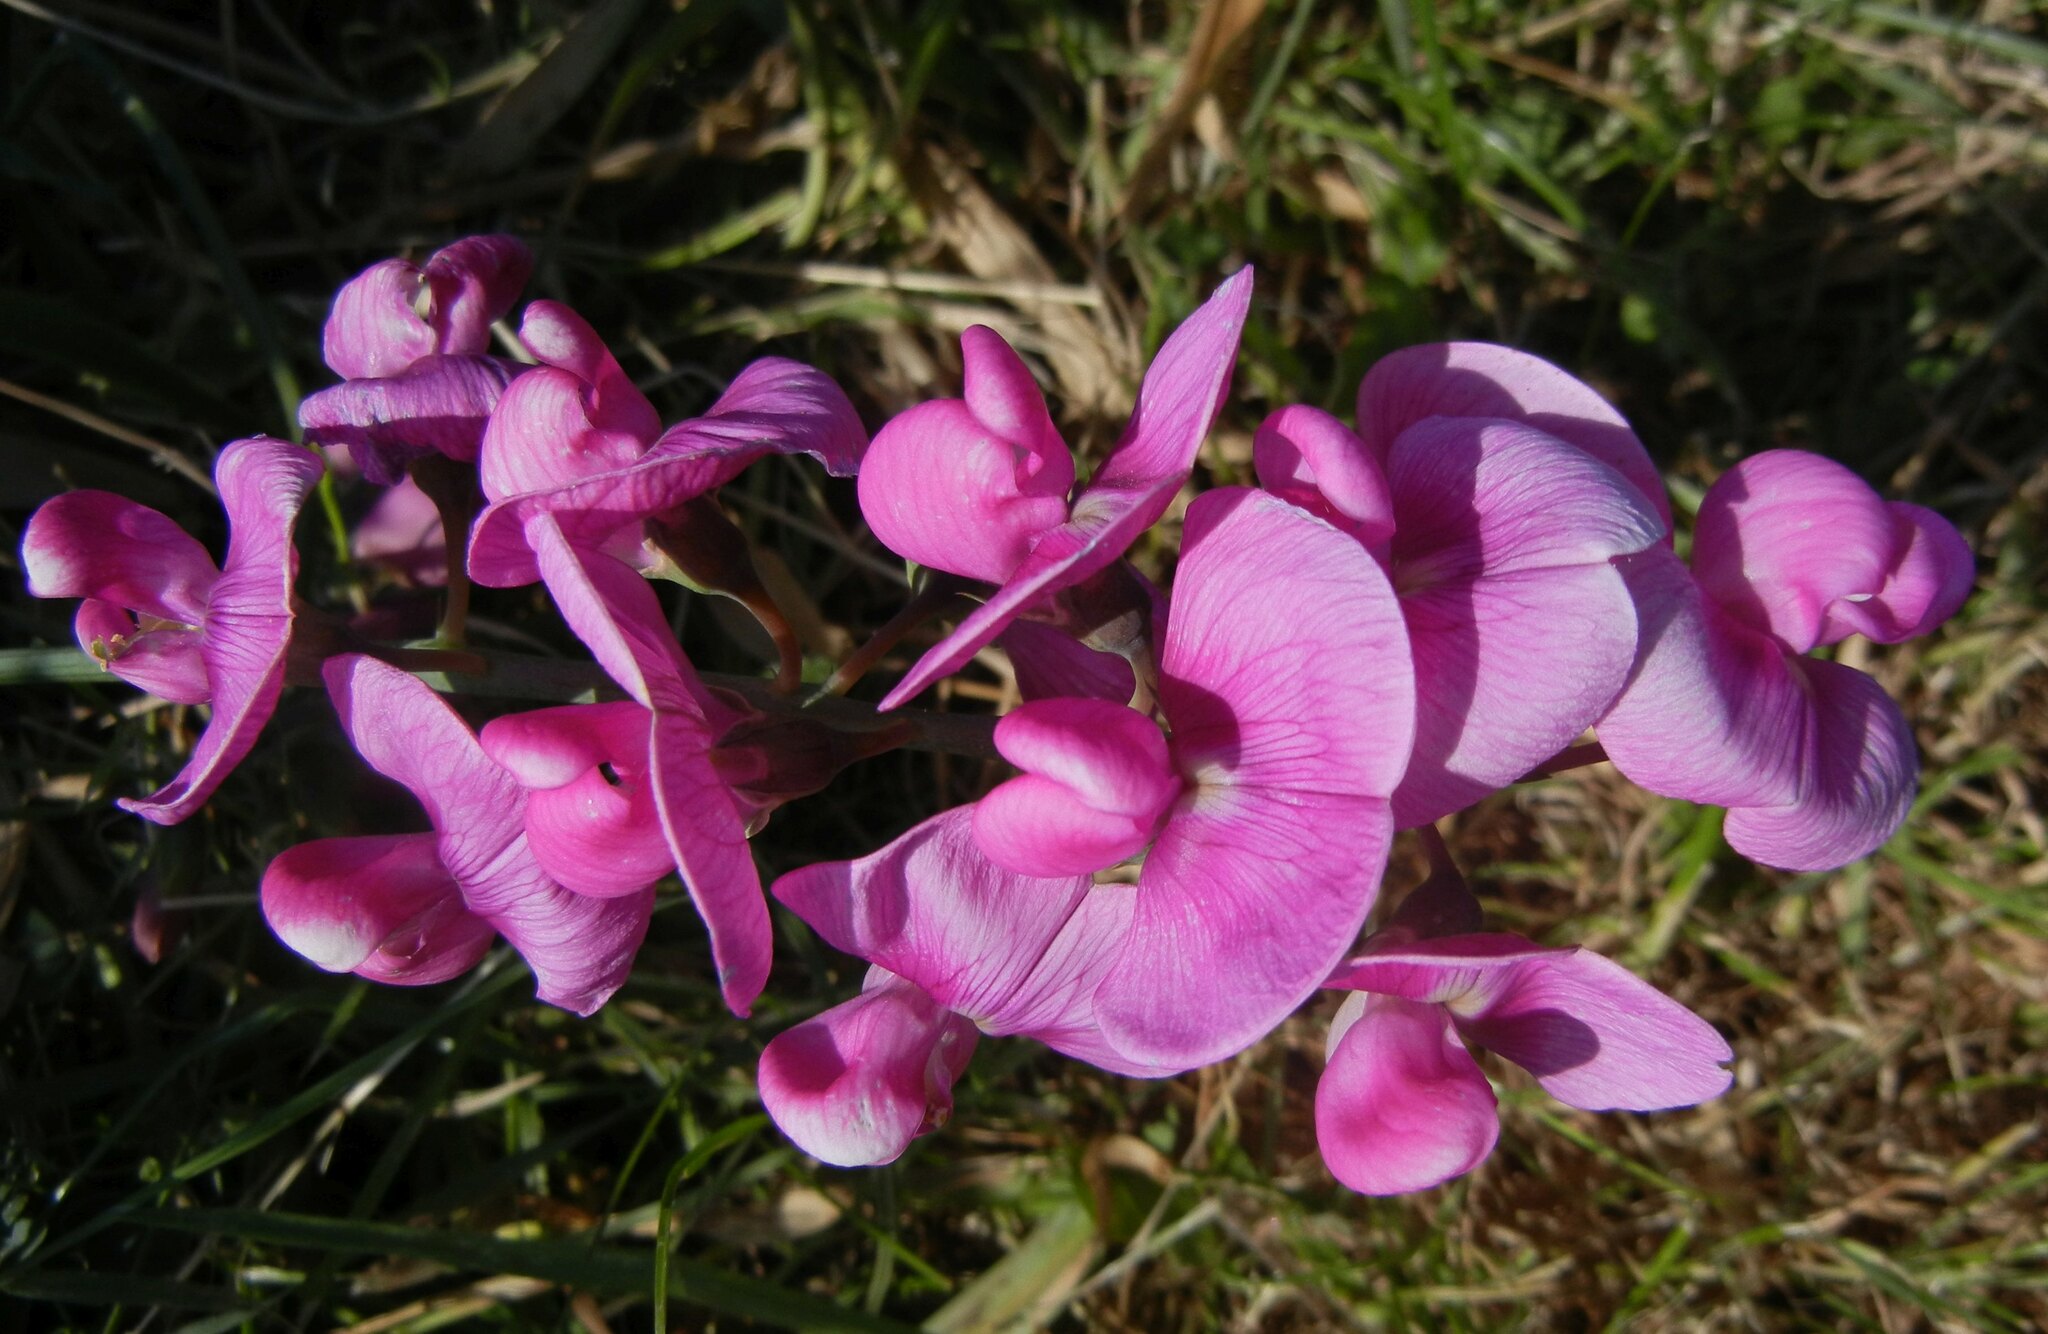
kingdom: Plantae
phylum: Tracheophyta
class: Magnoliopsida
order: Fabales
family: Fabaceae
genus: Lathyrus
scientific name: Lathyrus latifolius
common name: Perennial pea
